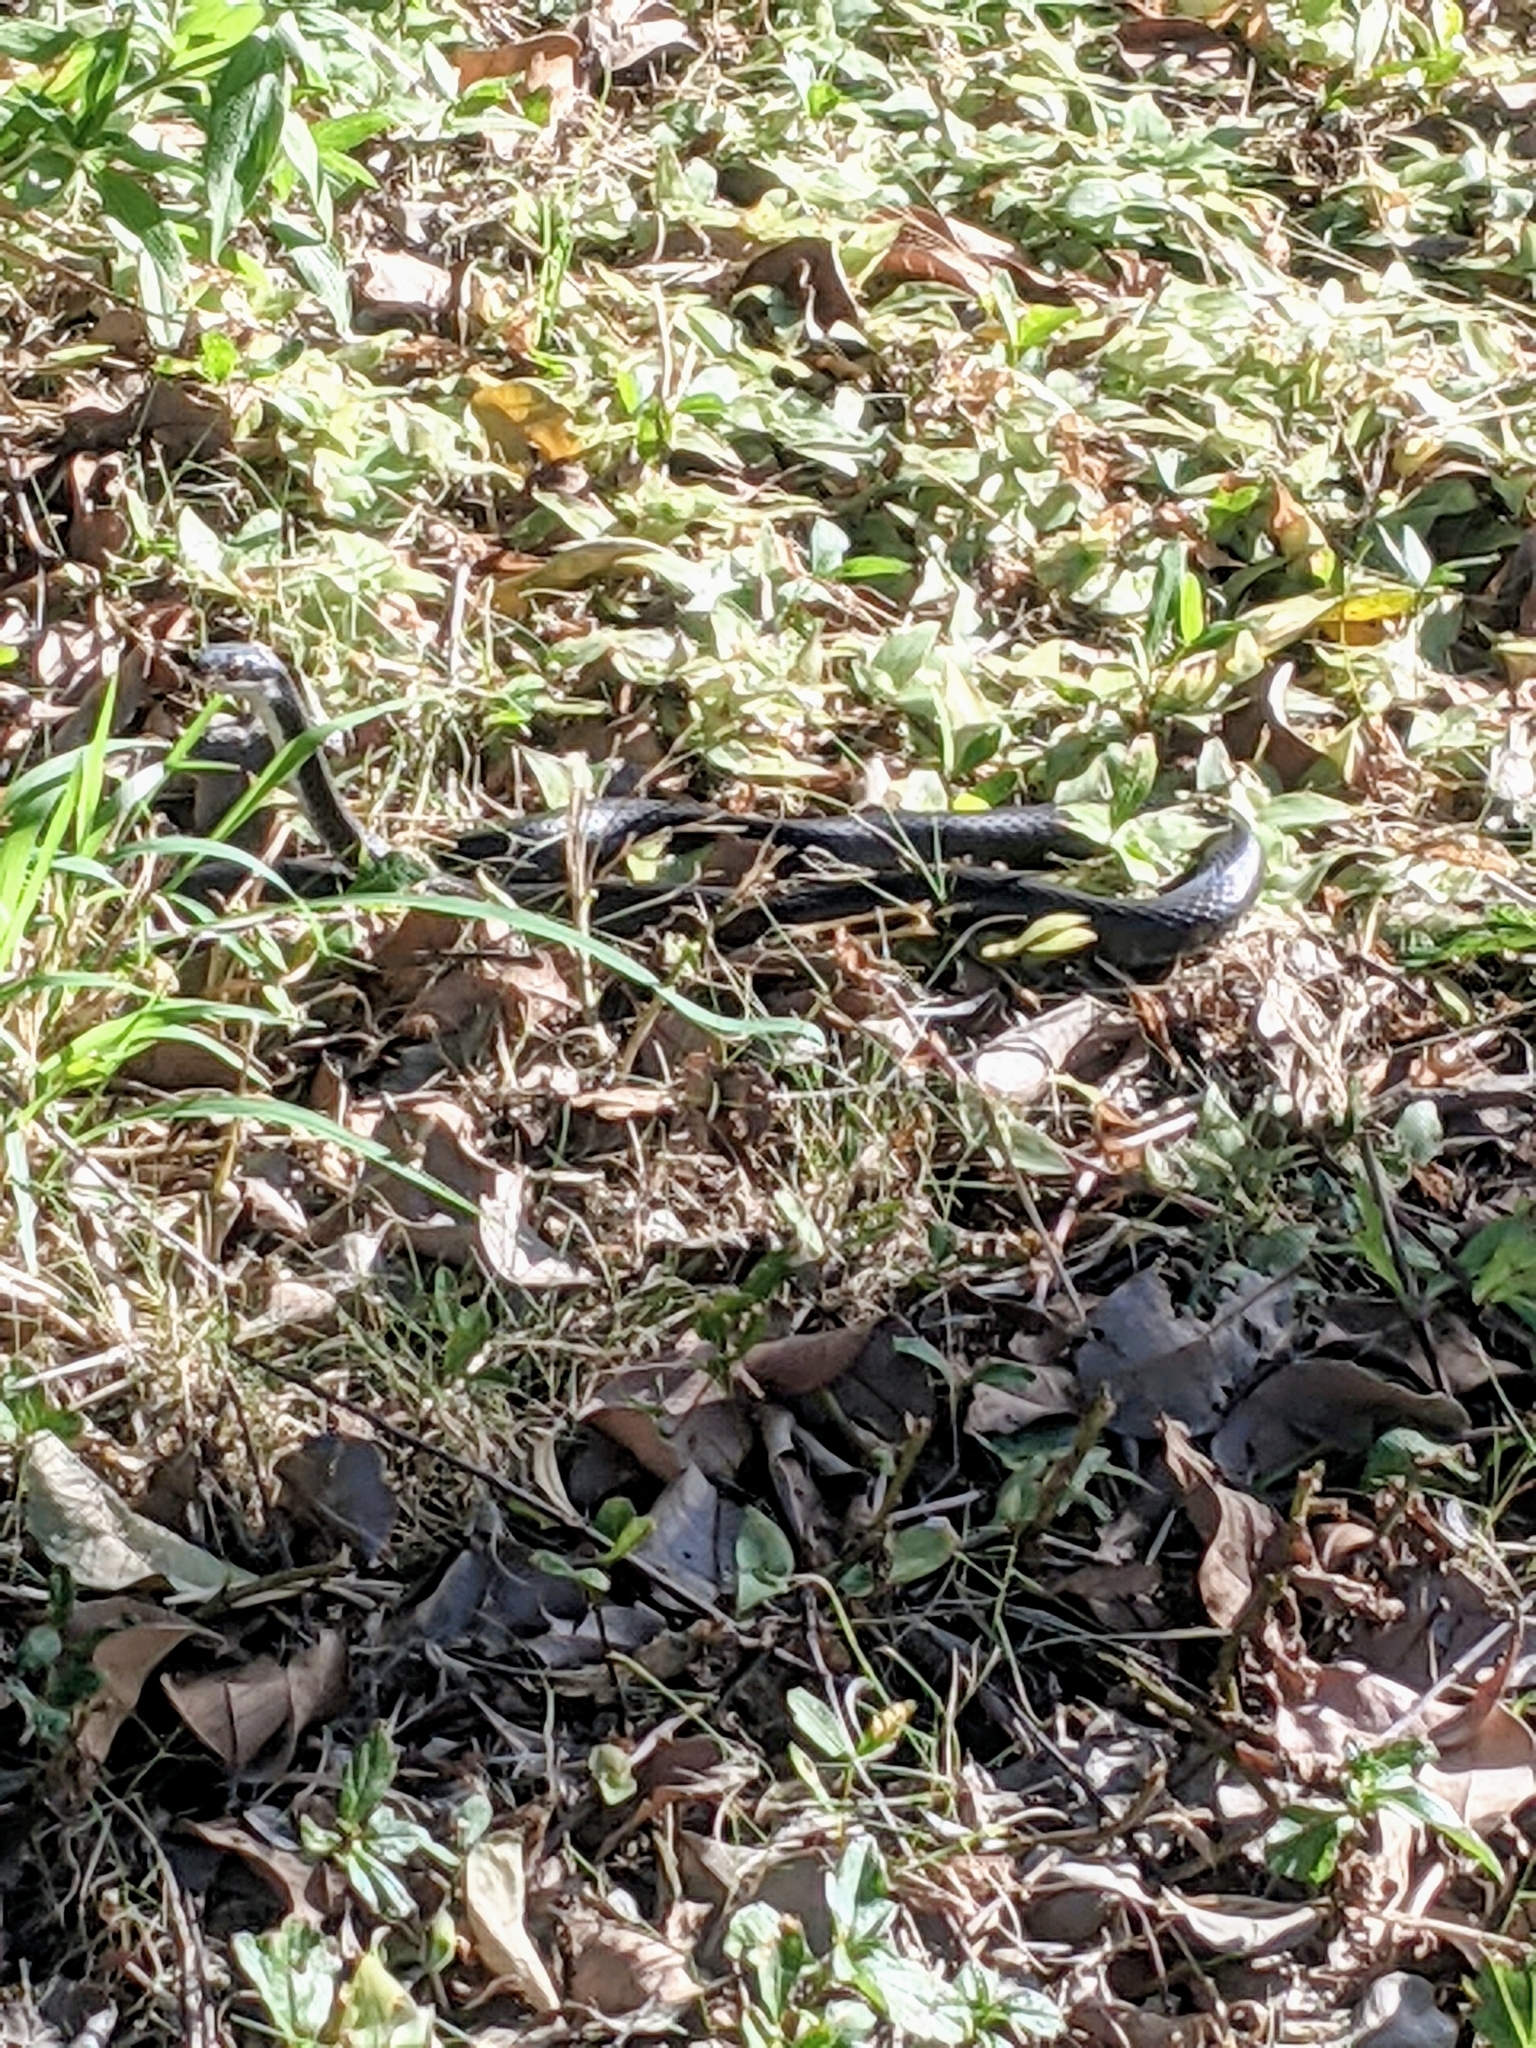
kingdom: Animalia
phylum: Chordata
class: Squamata
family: Colubridae
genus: Coluber
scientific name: Coluber constrictor
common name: Eastern racer
